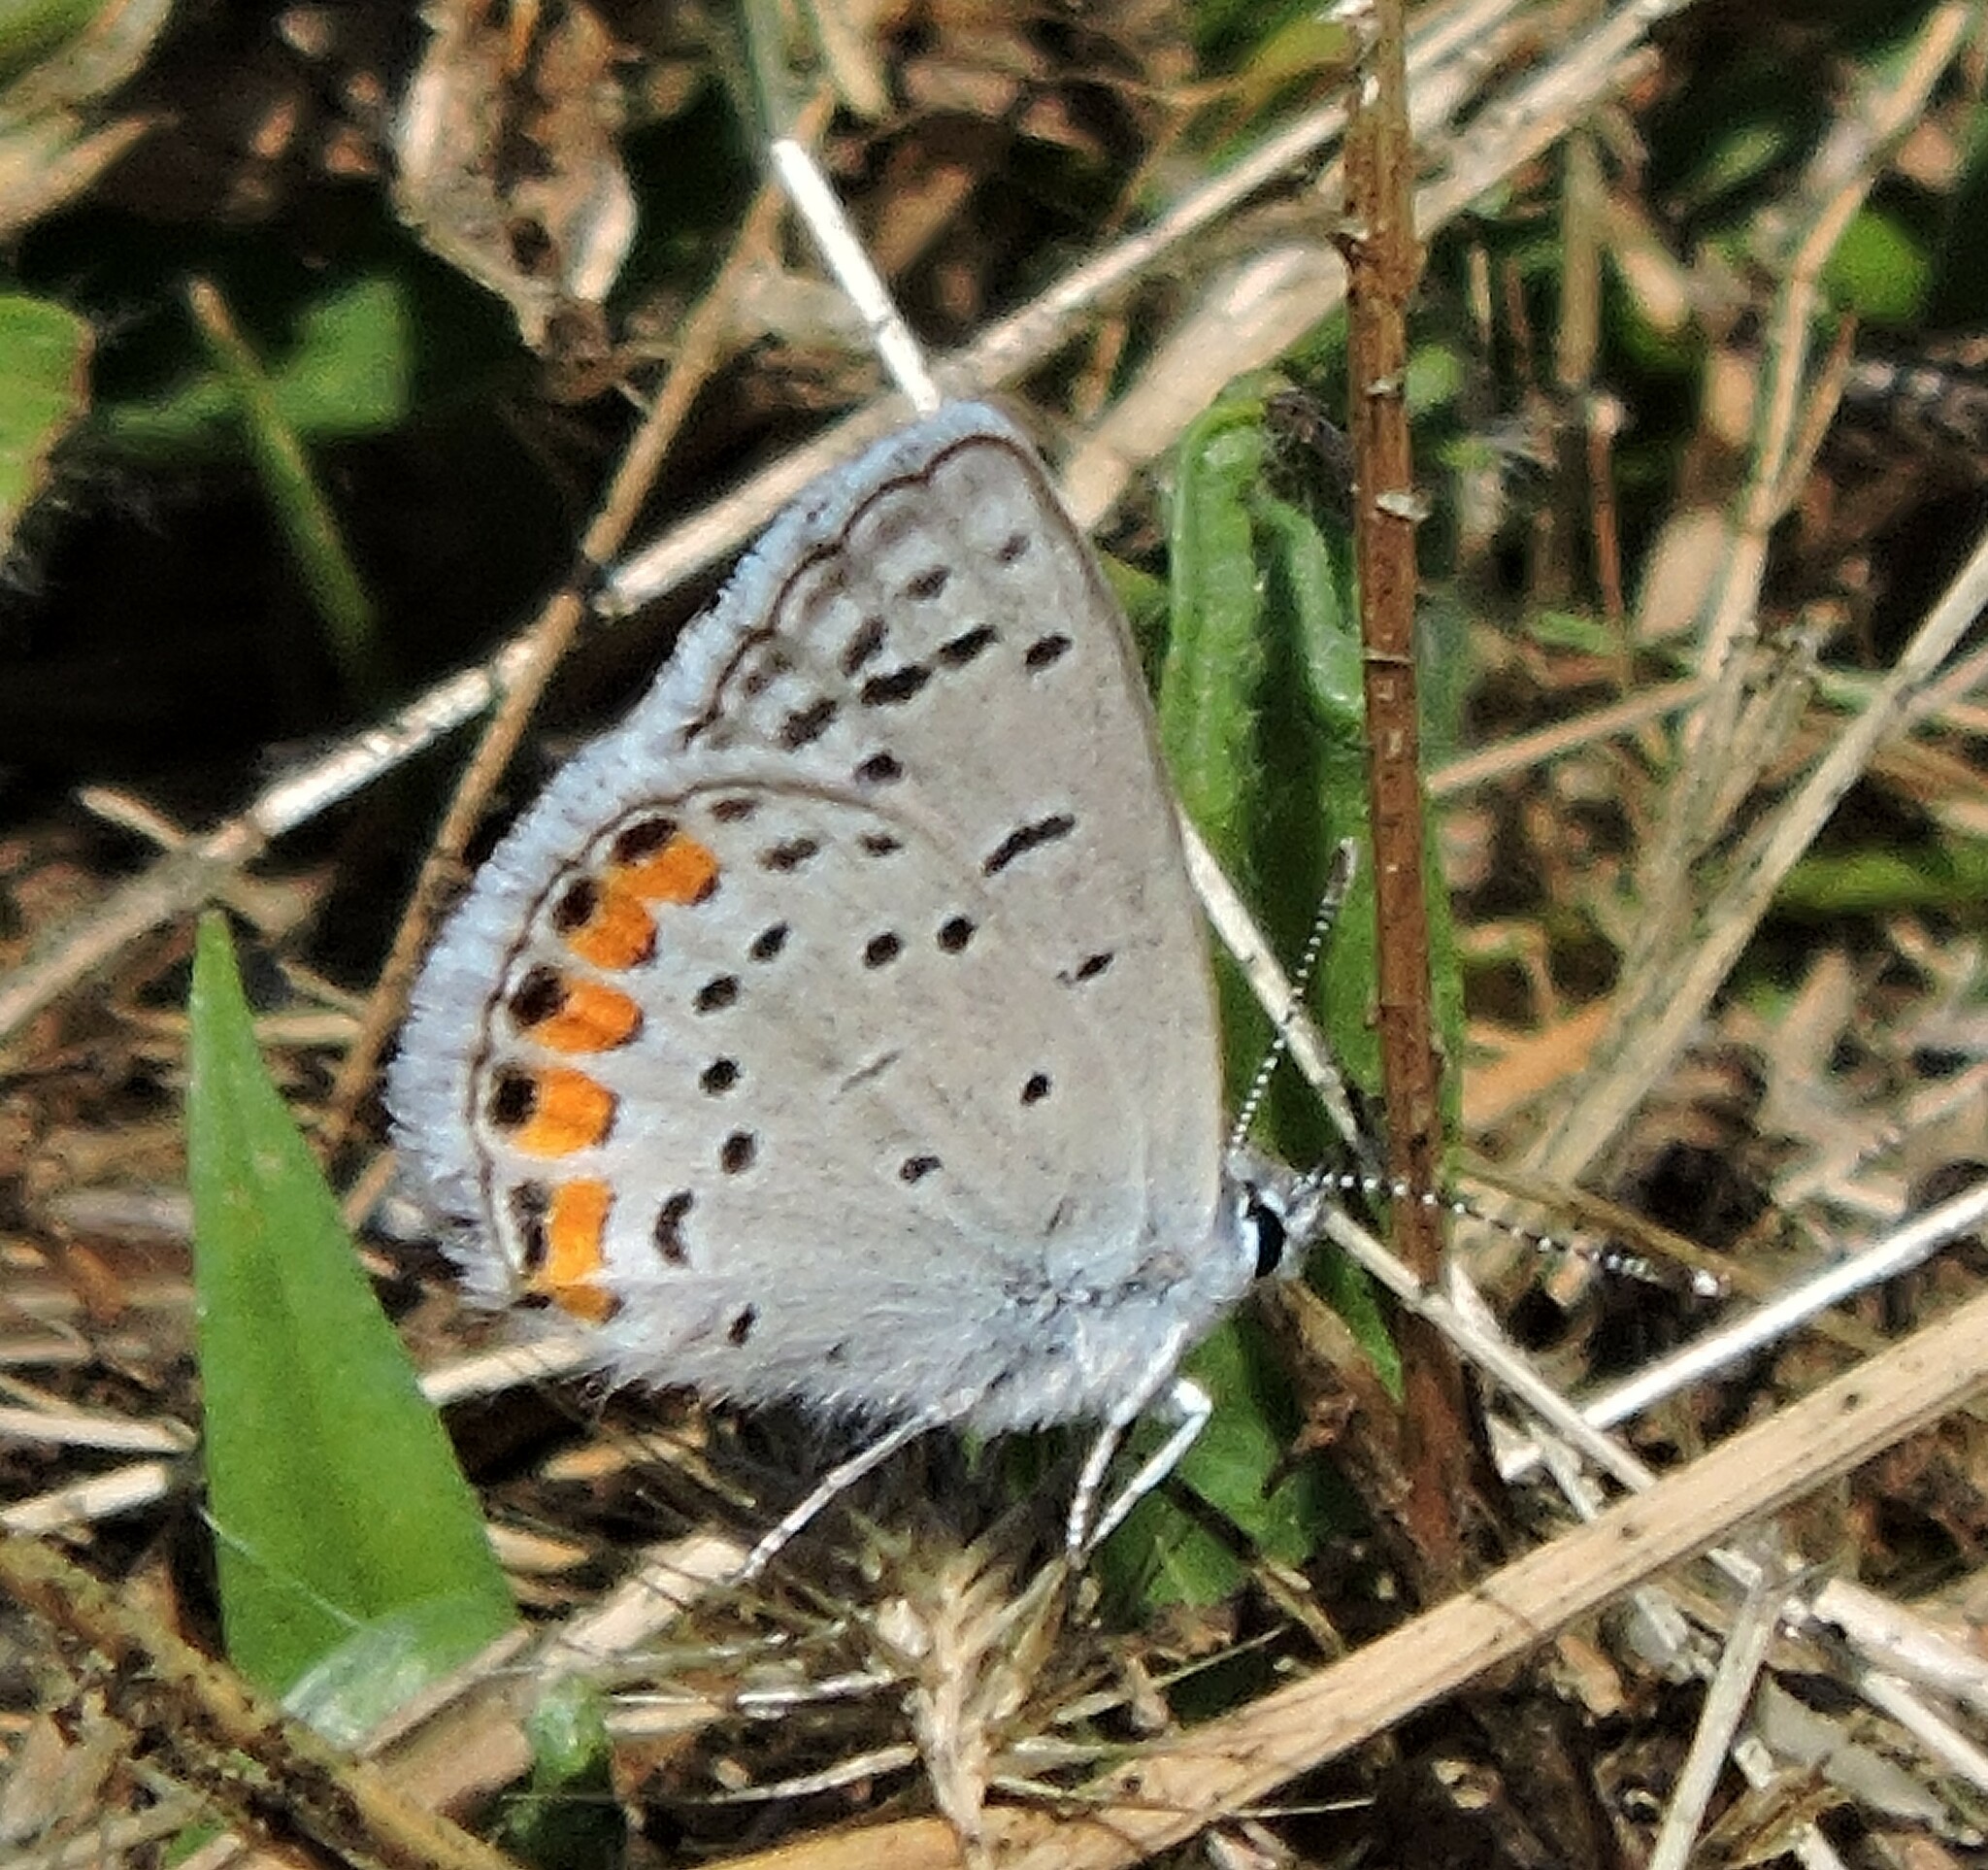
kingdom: Animalia
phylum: Arthropoda
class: Insecta
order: Lepidoptera
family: Lycaenidae
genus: Icaricia
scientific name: Icaricia acmon
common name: Acmon blue
